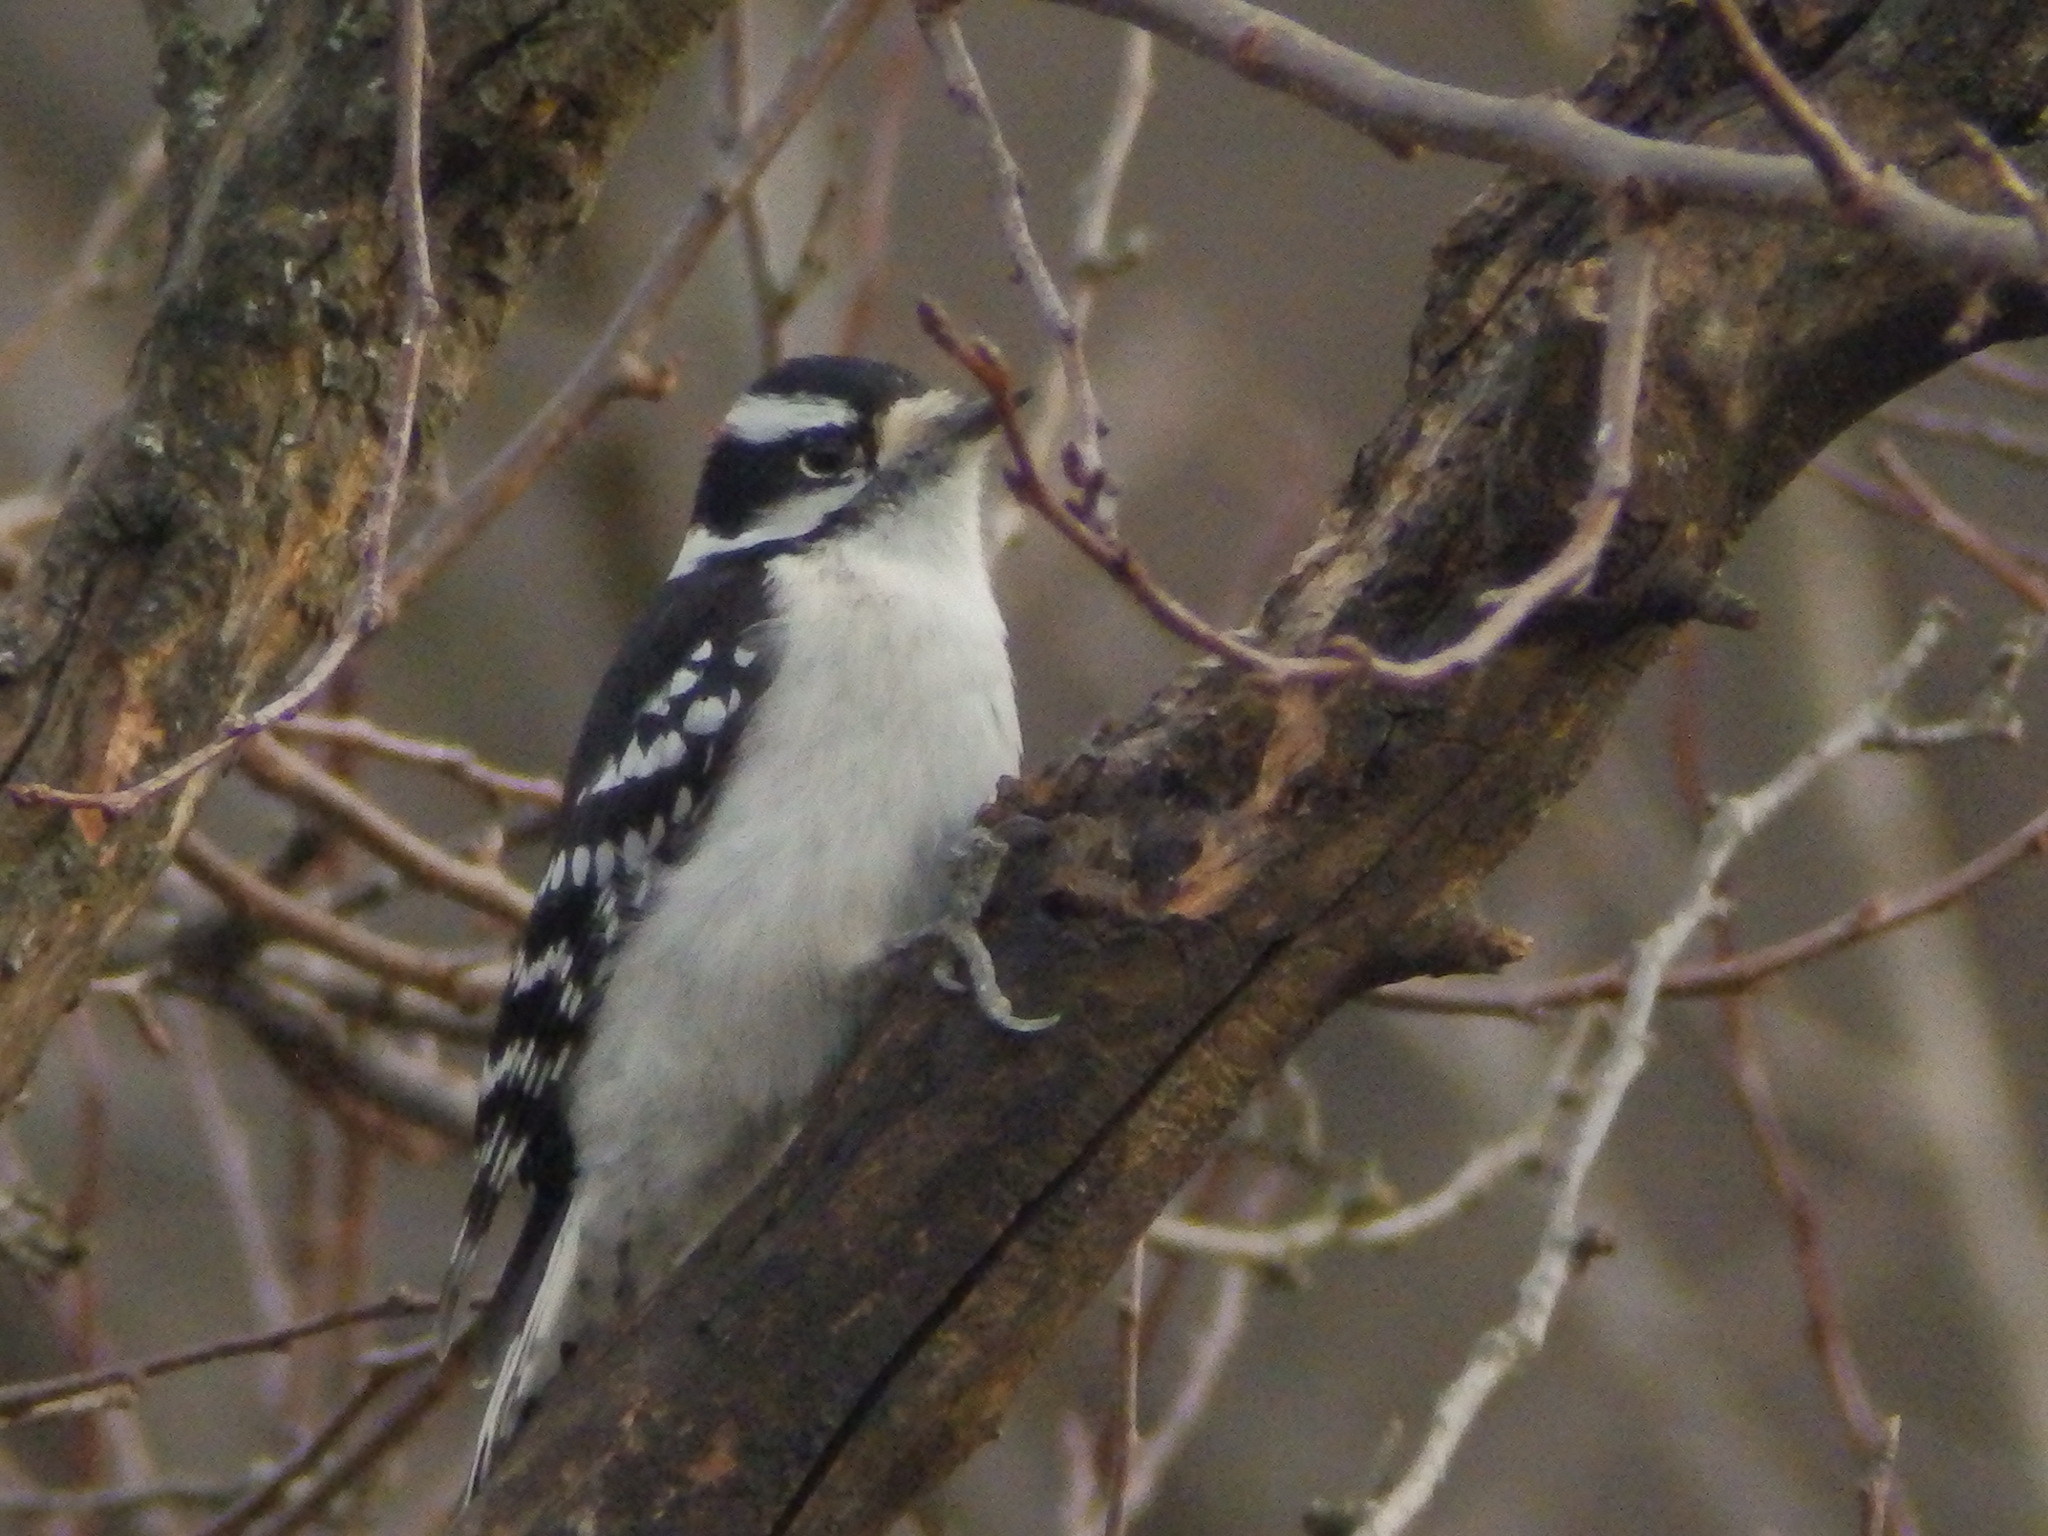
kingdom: Animalia
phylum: Chordata
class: Aves
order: Piciformes
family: Picidae
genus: Dryobates
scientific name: Dryobates pubescens
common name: Downy woodpecker
